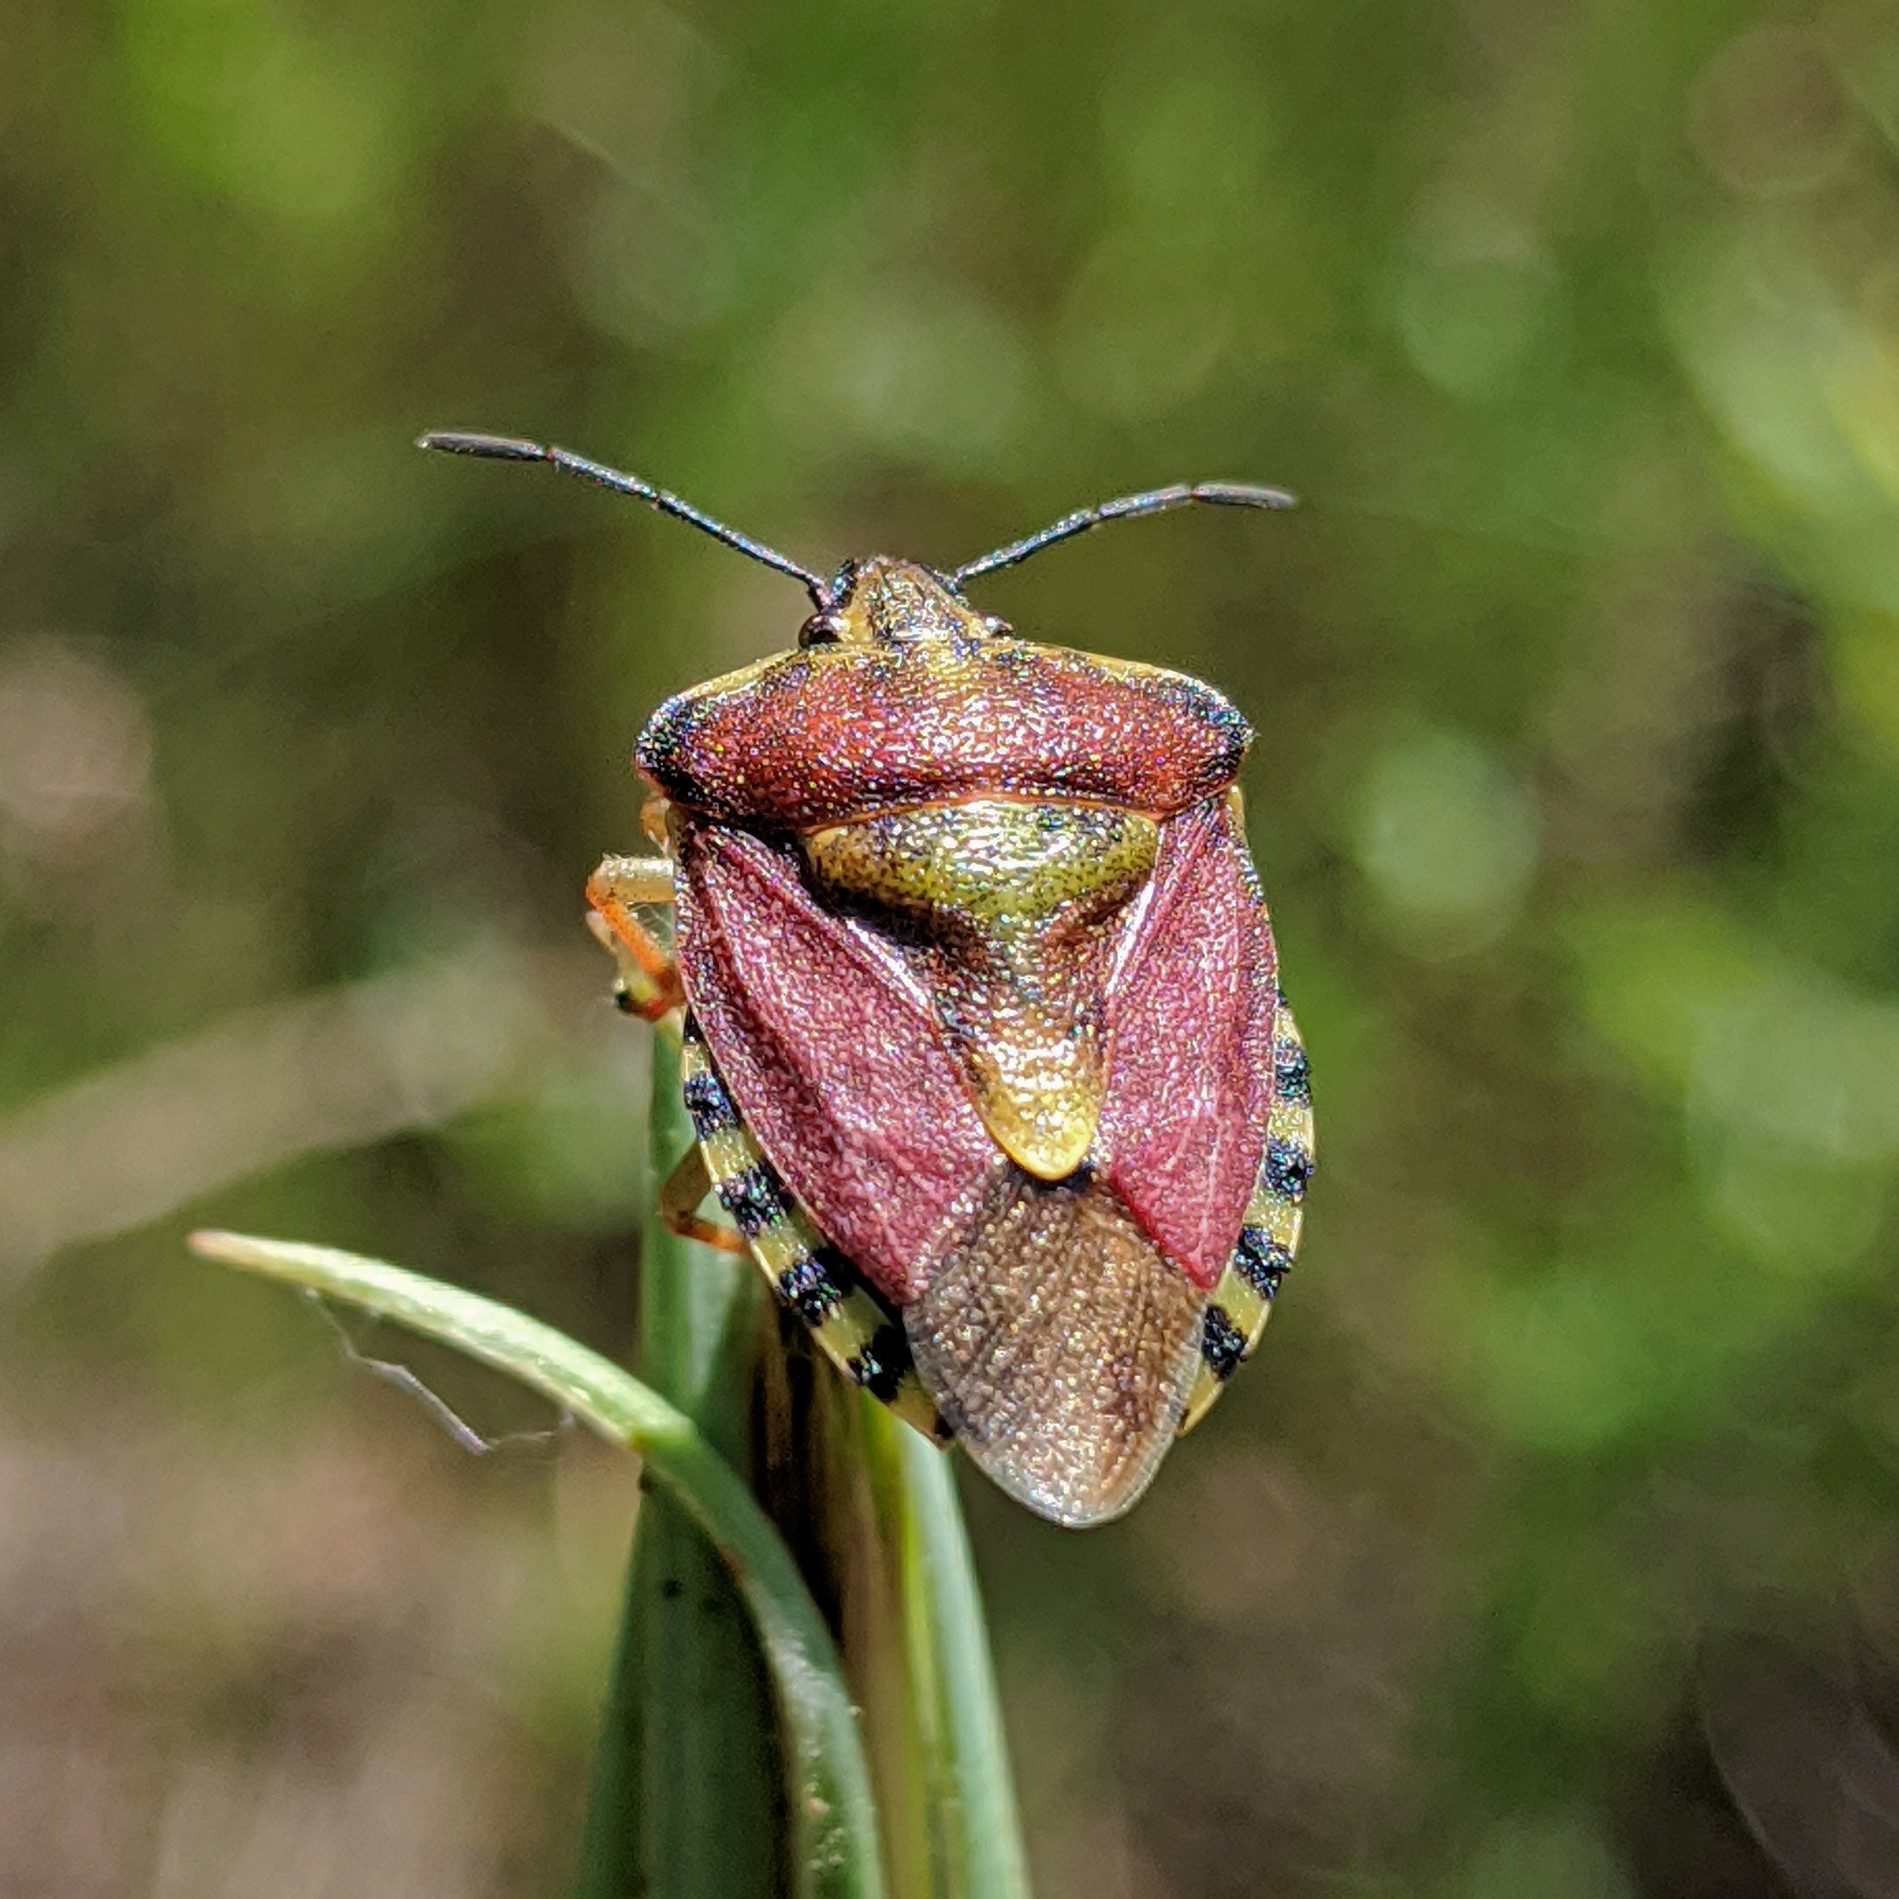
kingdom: Animalia
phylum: Arthropoda
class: Insecta
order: Hemiptera
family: Pentatomidae
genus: Carpocoris
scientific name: Carpocoris purpureipennis
